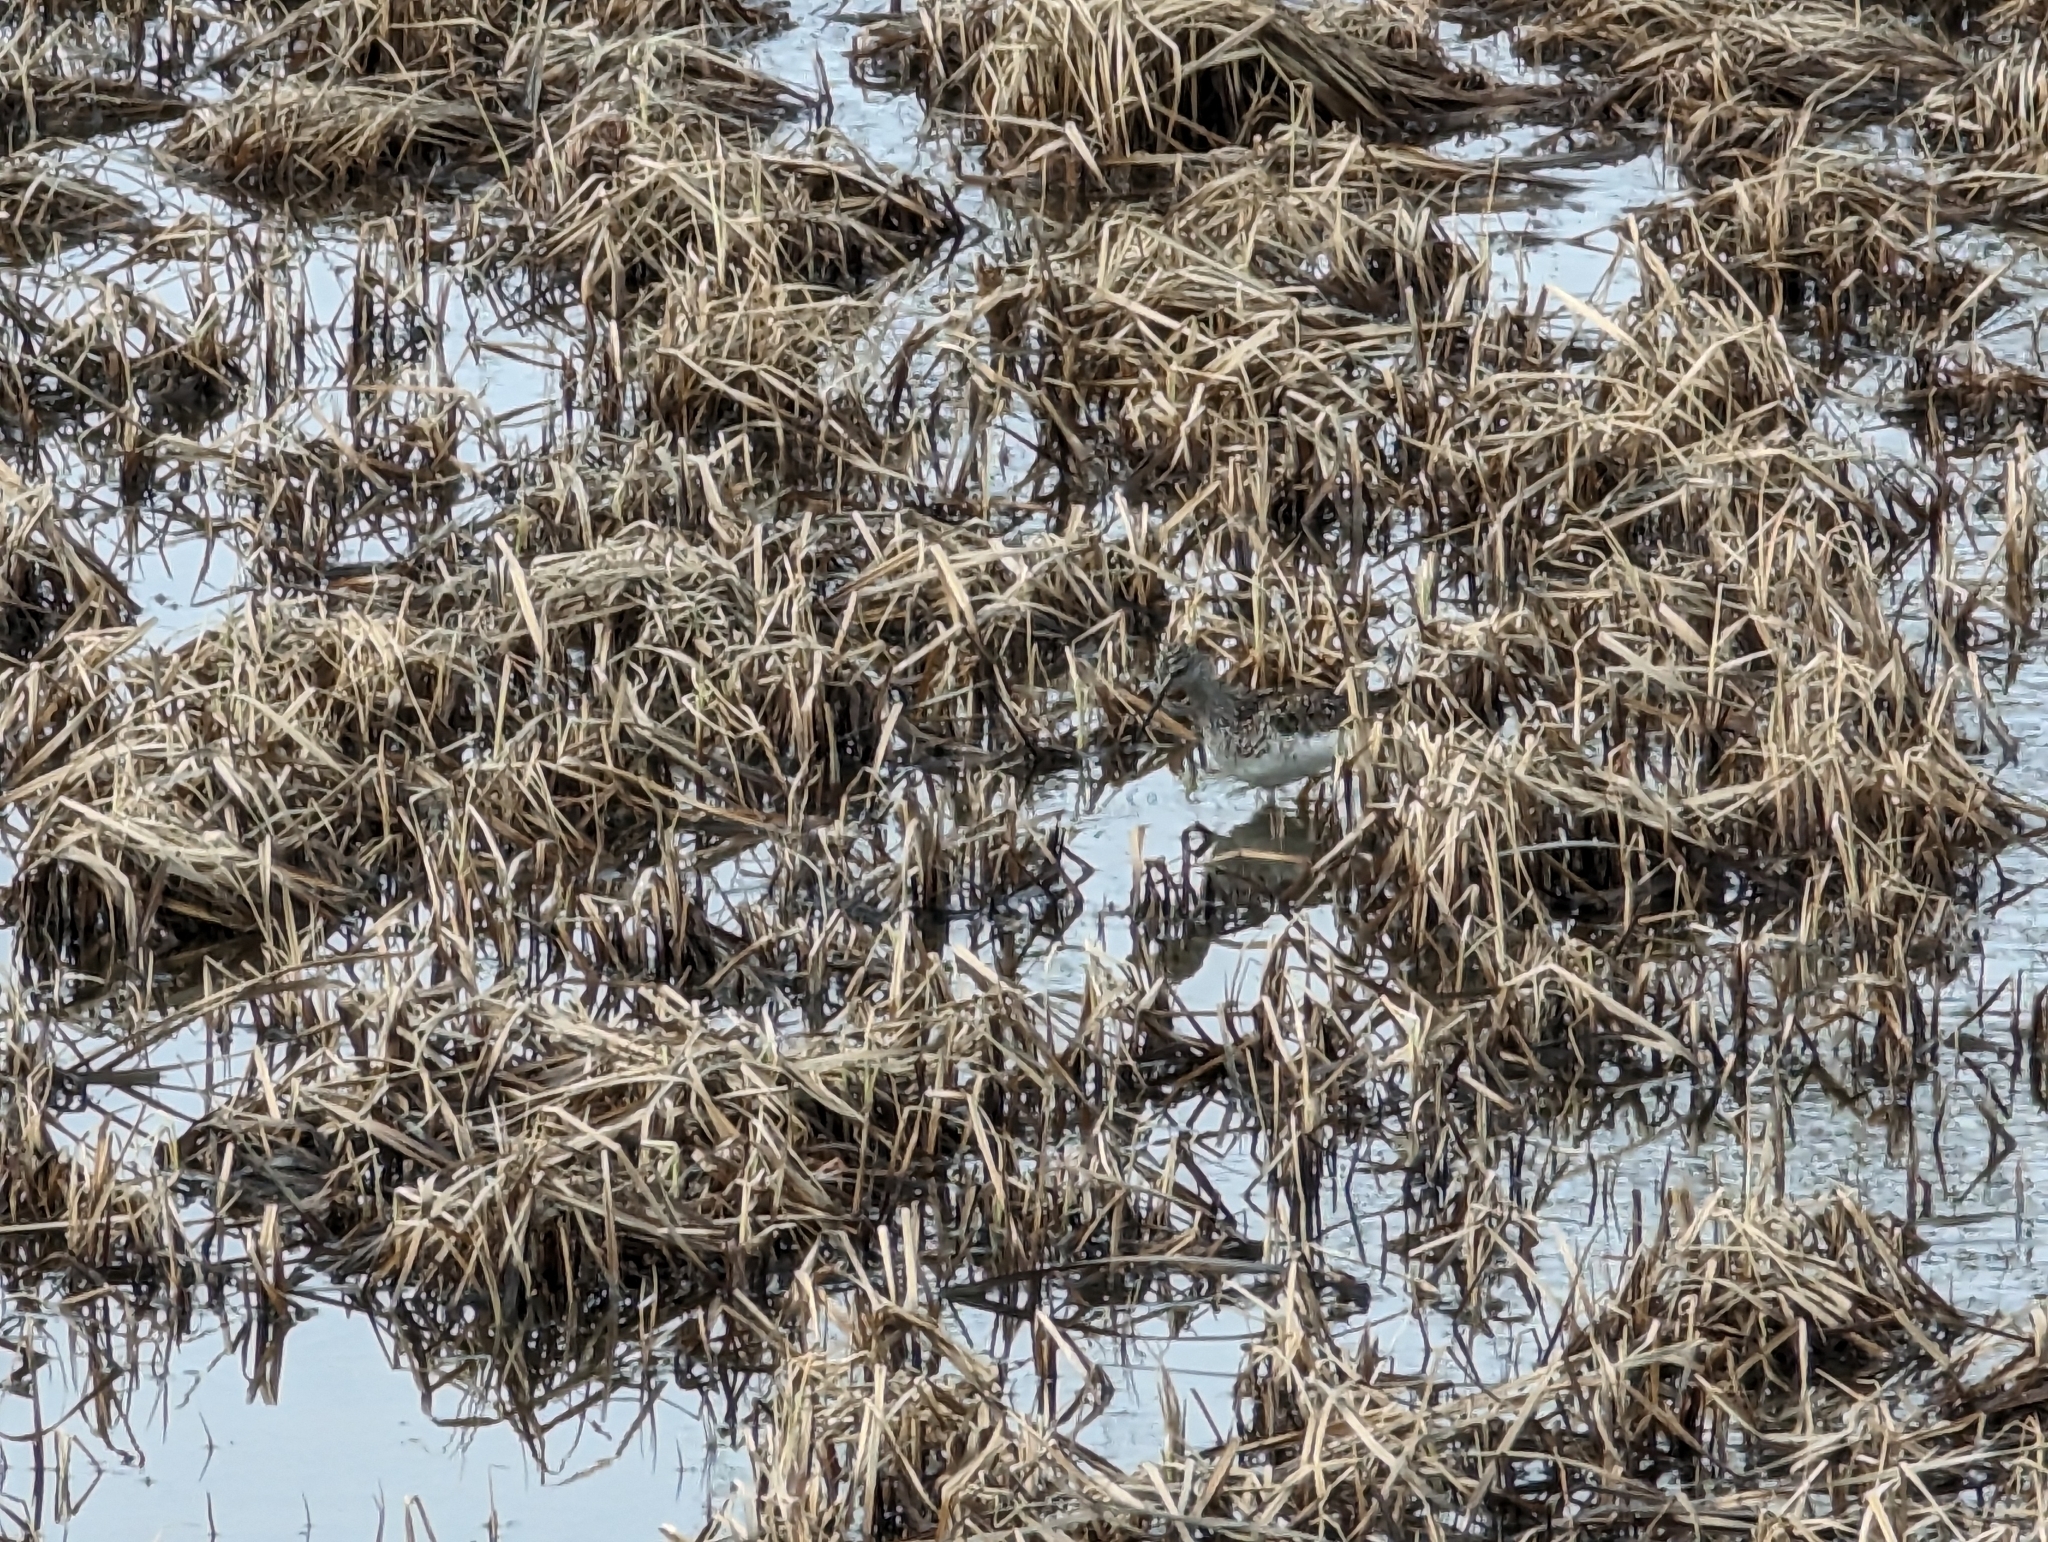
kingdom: Animalia
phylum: Chordata
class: Aves
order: Charadriiformes
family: Scolopacidae
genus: Tringa
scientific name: Tringa flavipes
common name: Lesser yellowlegs
